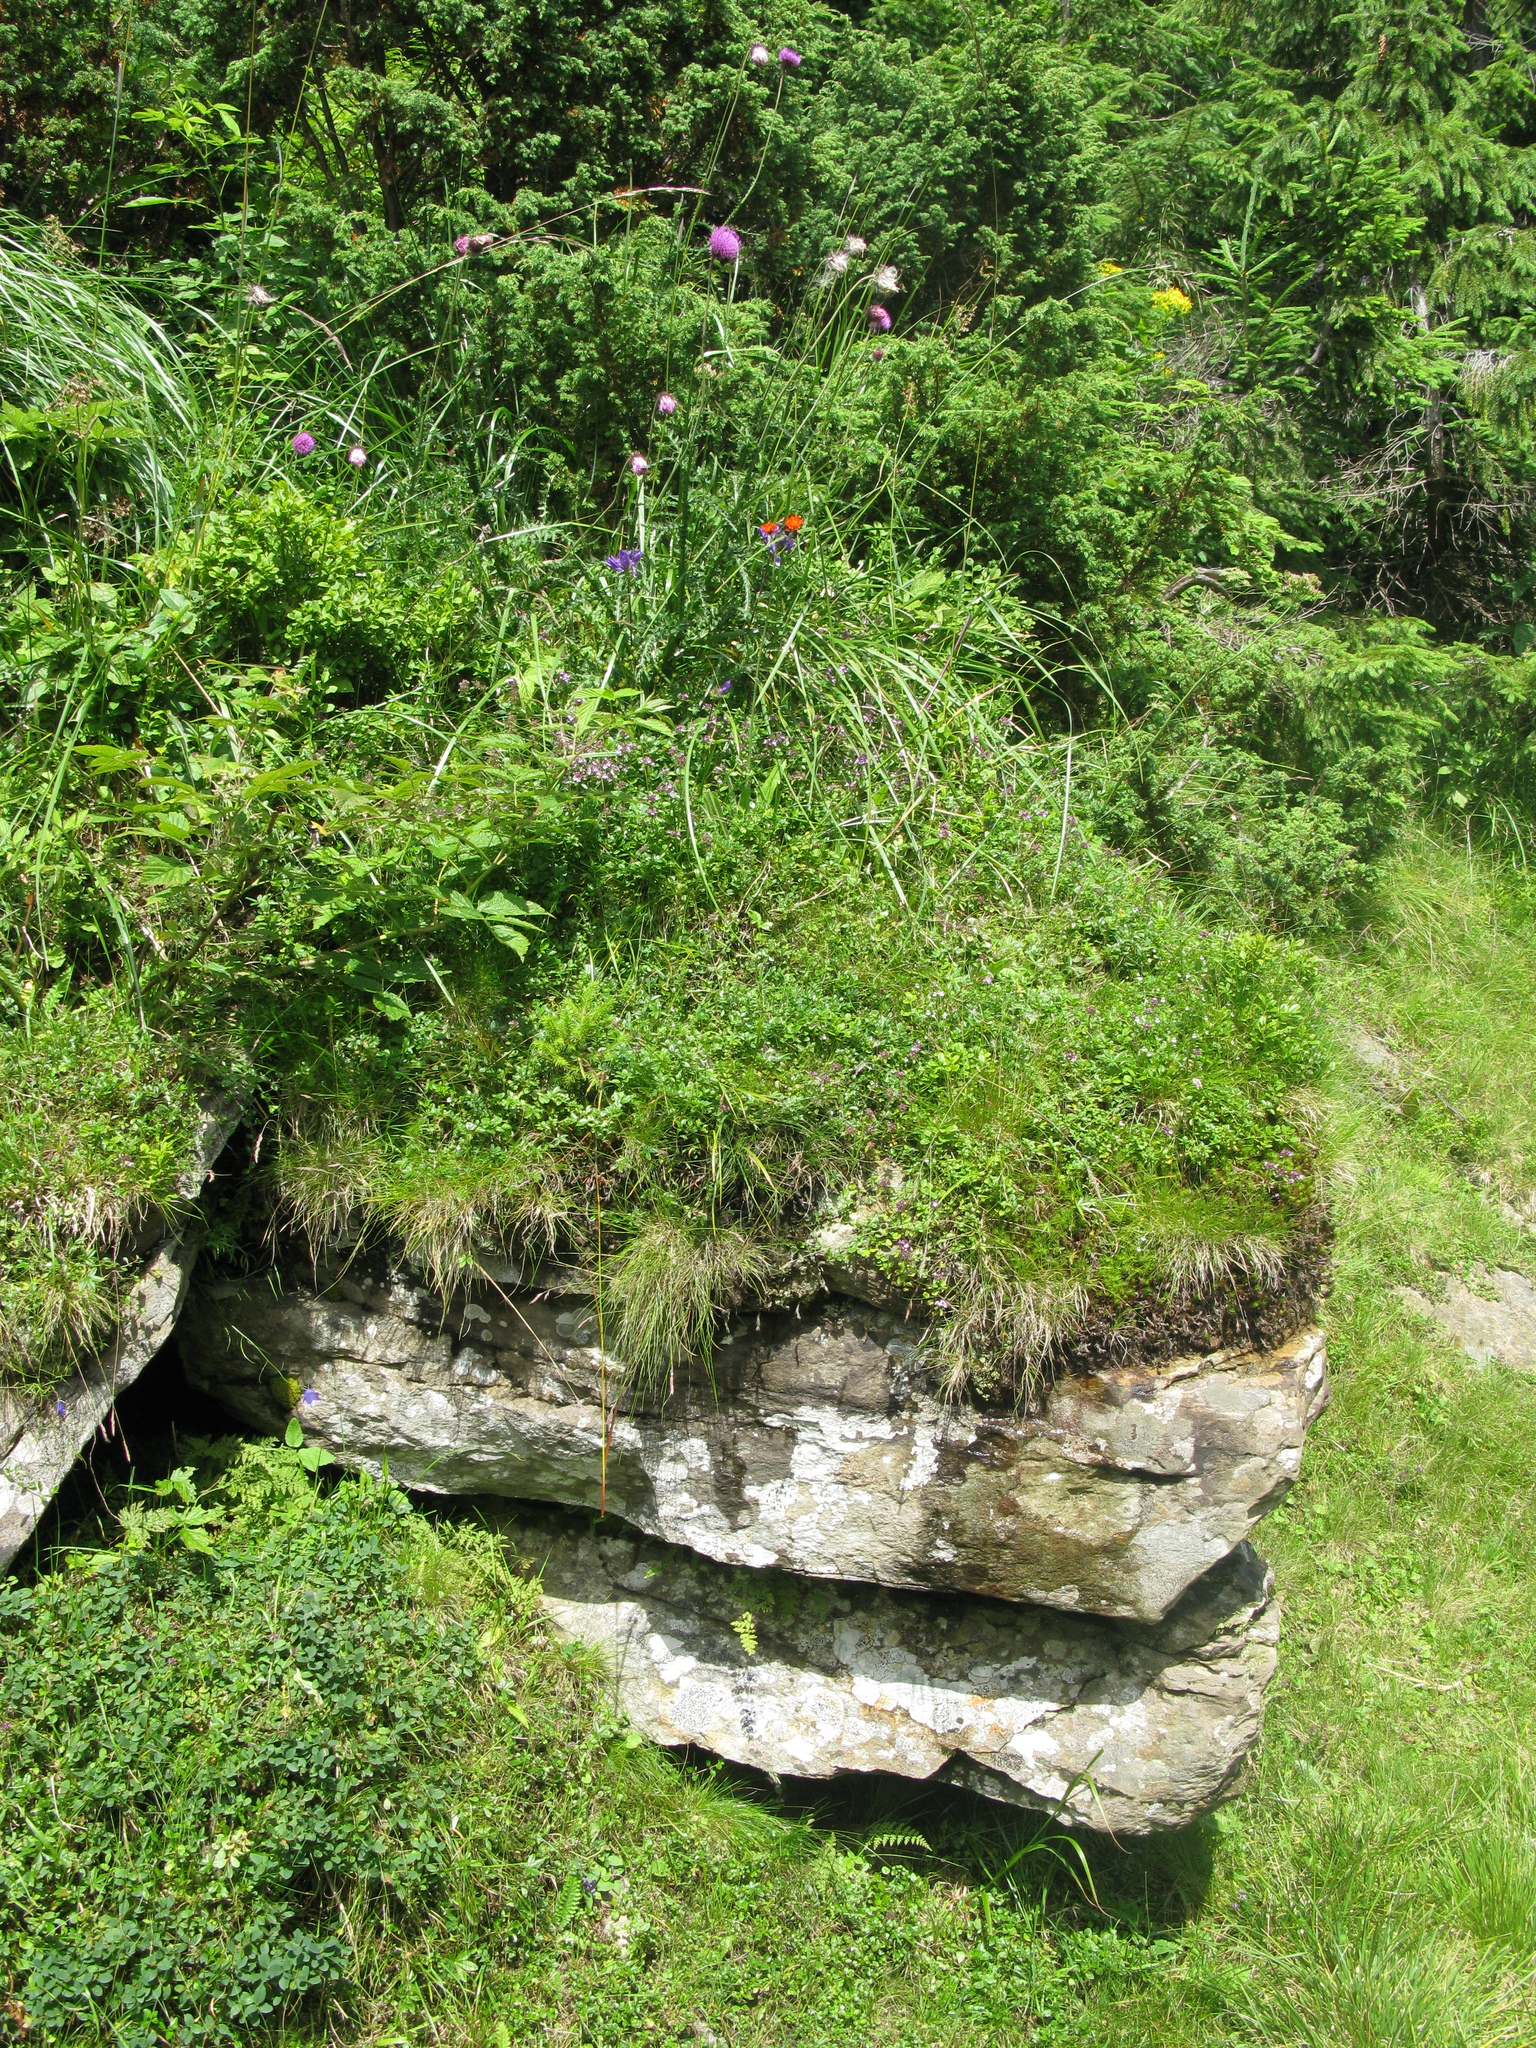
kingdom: Plantae
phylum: Tracheophyta
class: Magnoliopsida
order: Asterales
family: Asteraceae
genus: Carduus
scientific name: Carduus kerneri
